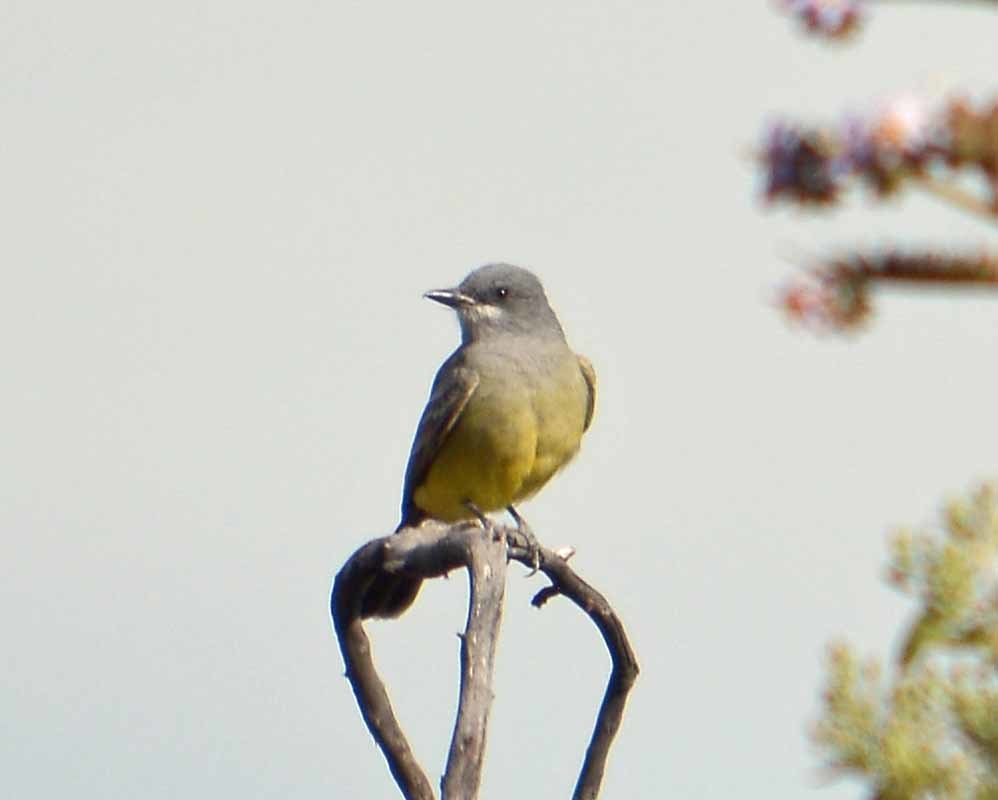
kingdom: Animalia
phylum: Chordata
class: Aves
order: Passeriformes
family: Tyrannidae
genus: Tyrannus
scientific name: Tyrannus vociferans
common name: Cassin's kingbird
